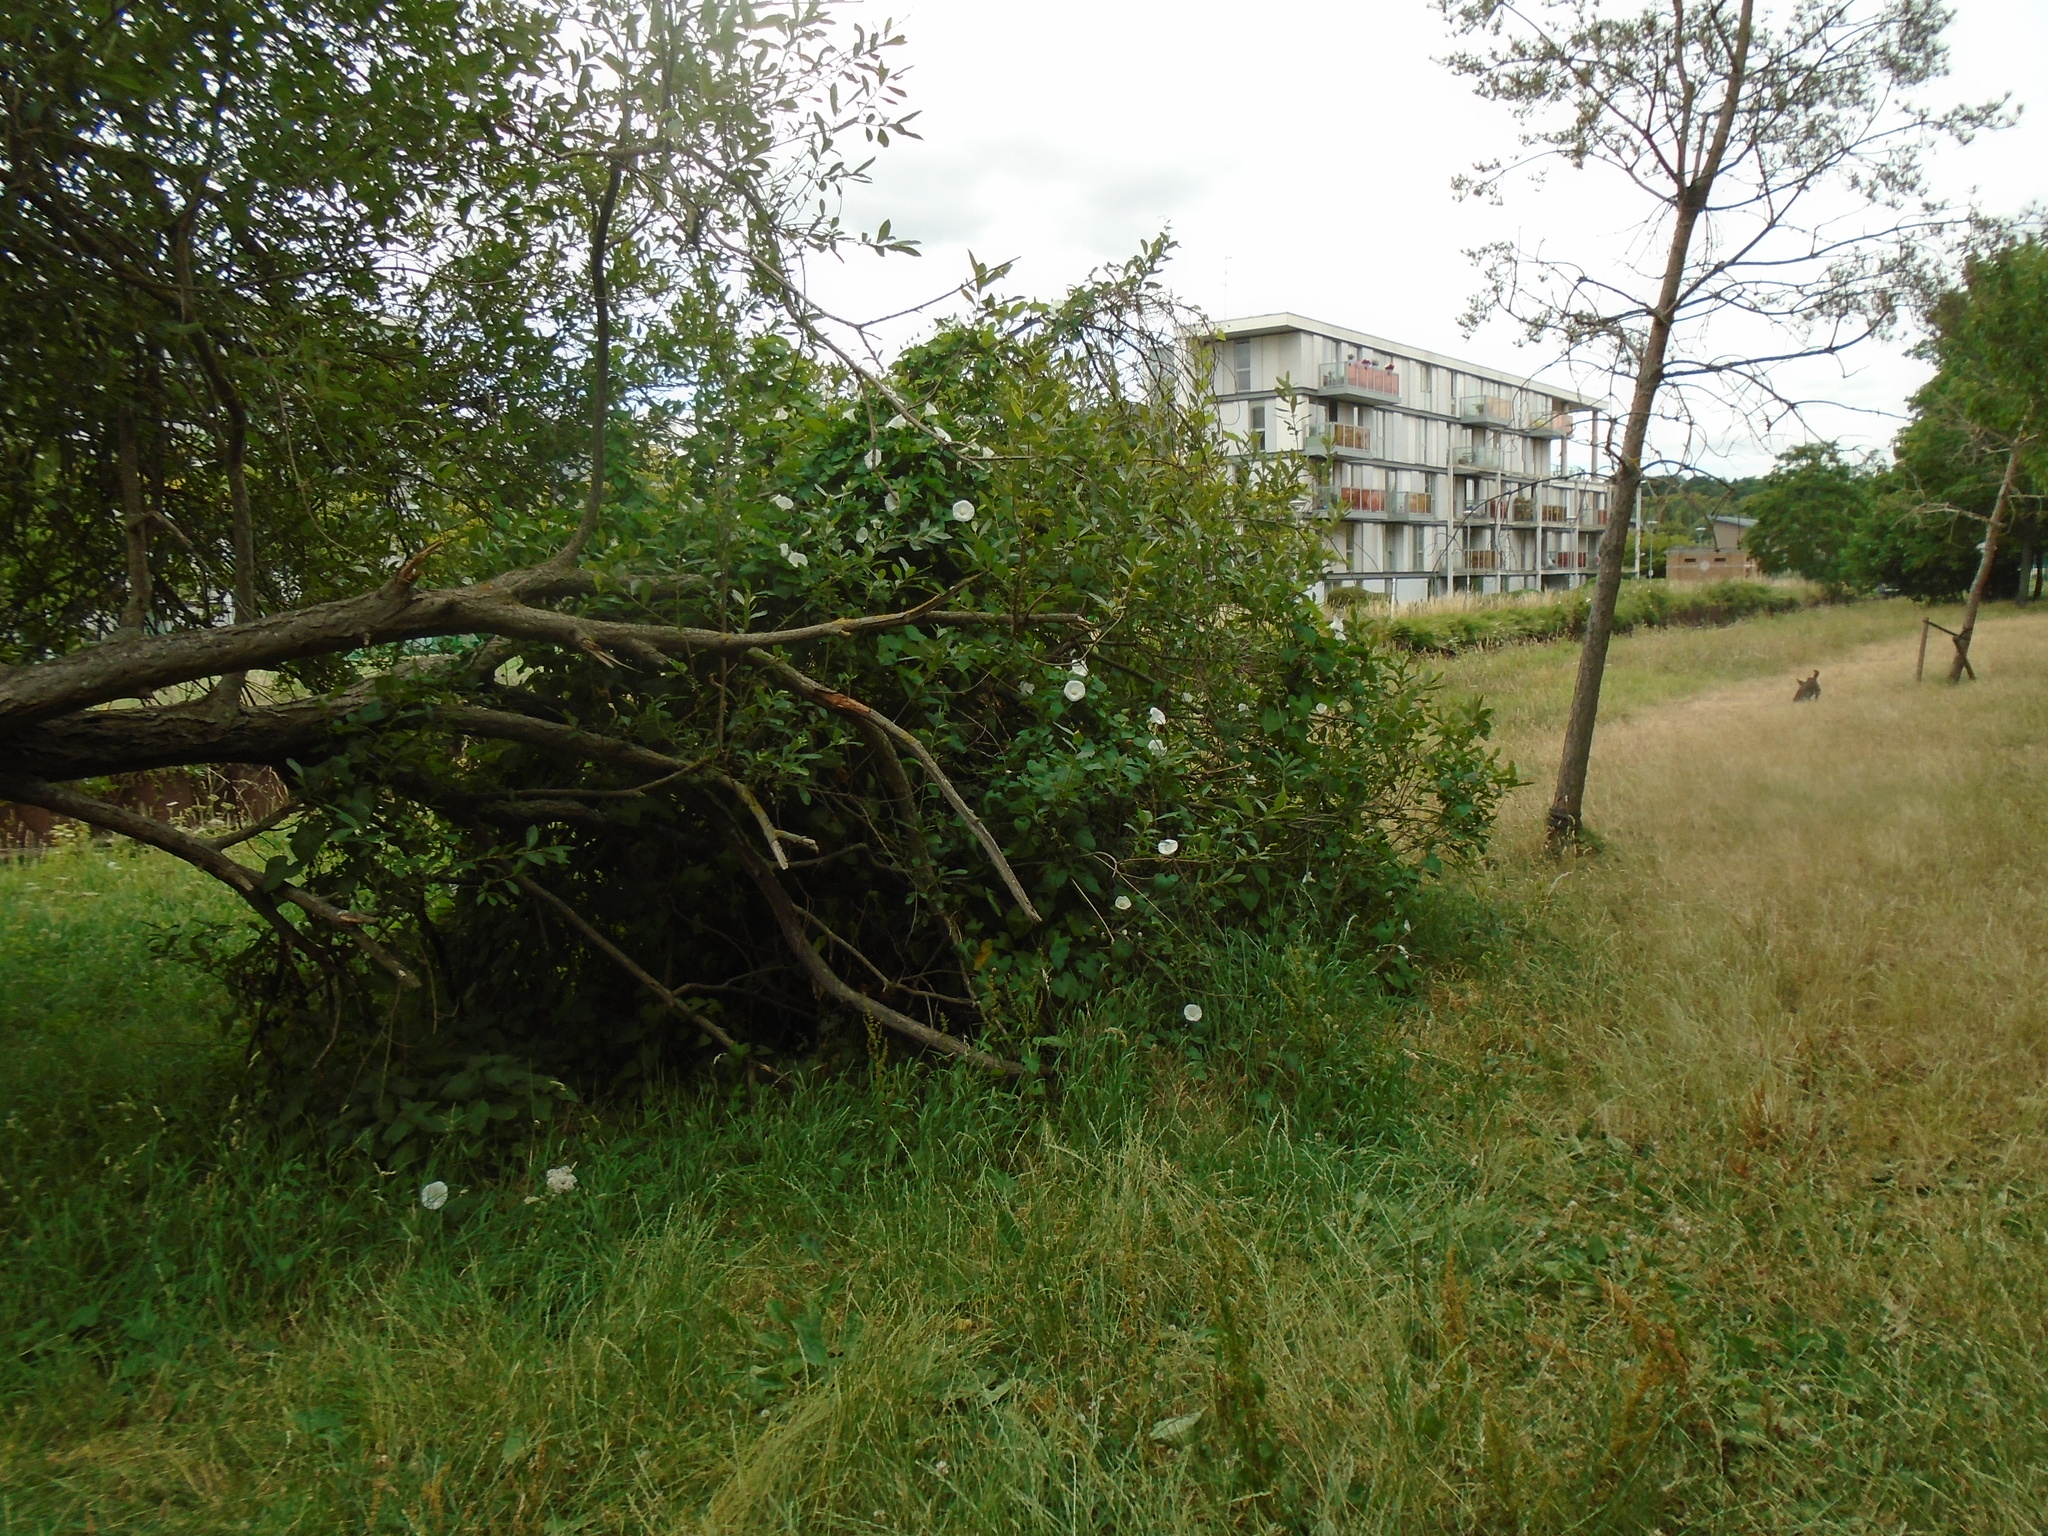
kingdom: Plantae
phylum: Tracheophyta
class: Magnoliopsida
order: Solanales
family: Convolvulaceae
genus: Calystegia
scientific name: Calystegia silvatica
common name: Large bindweed
